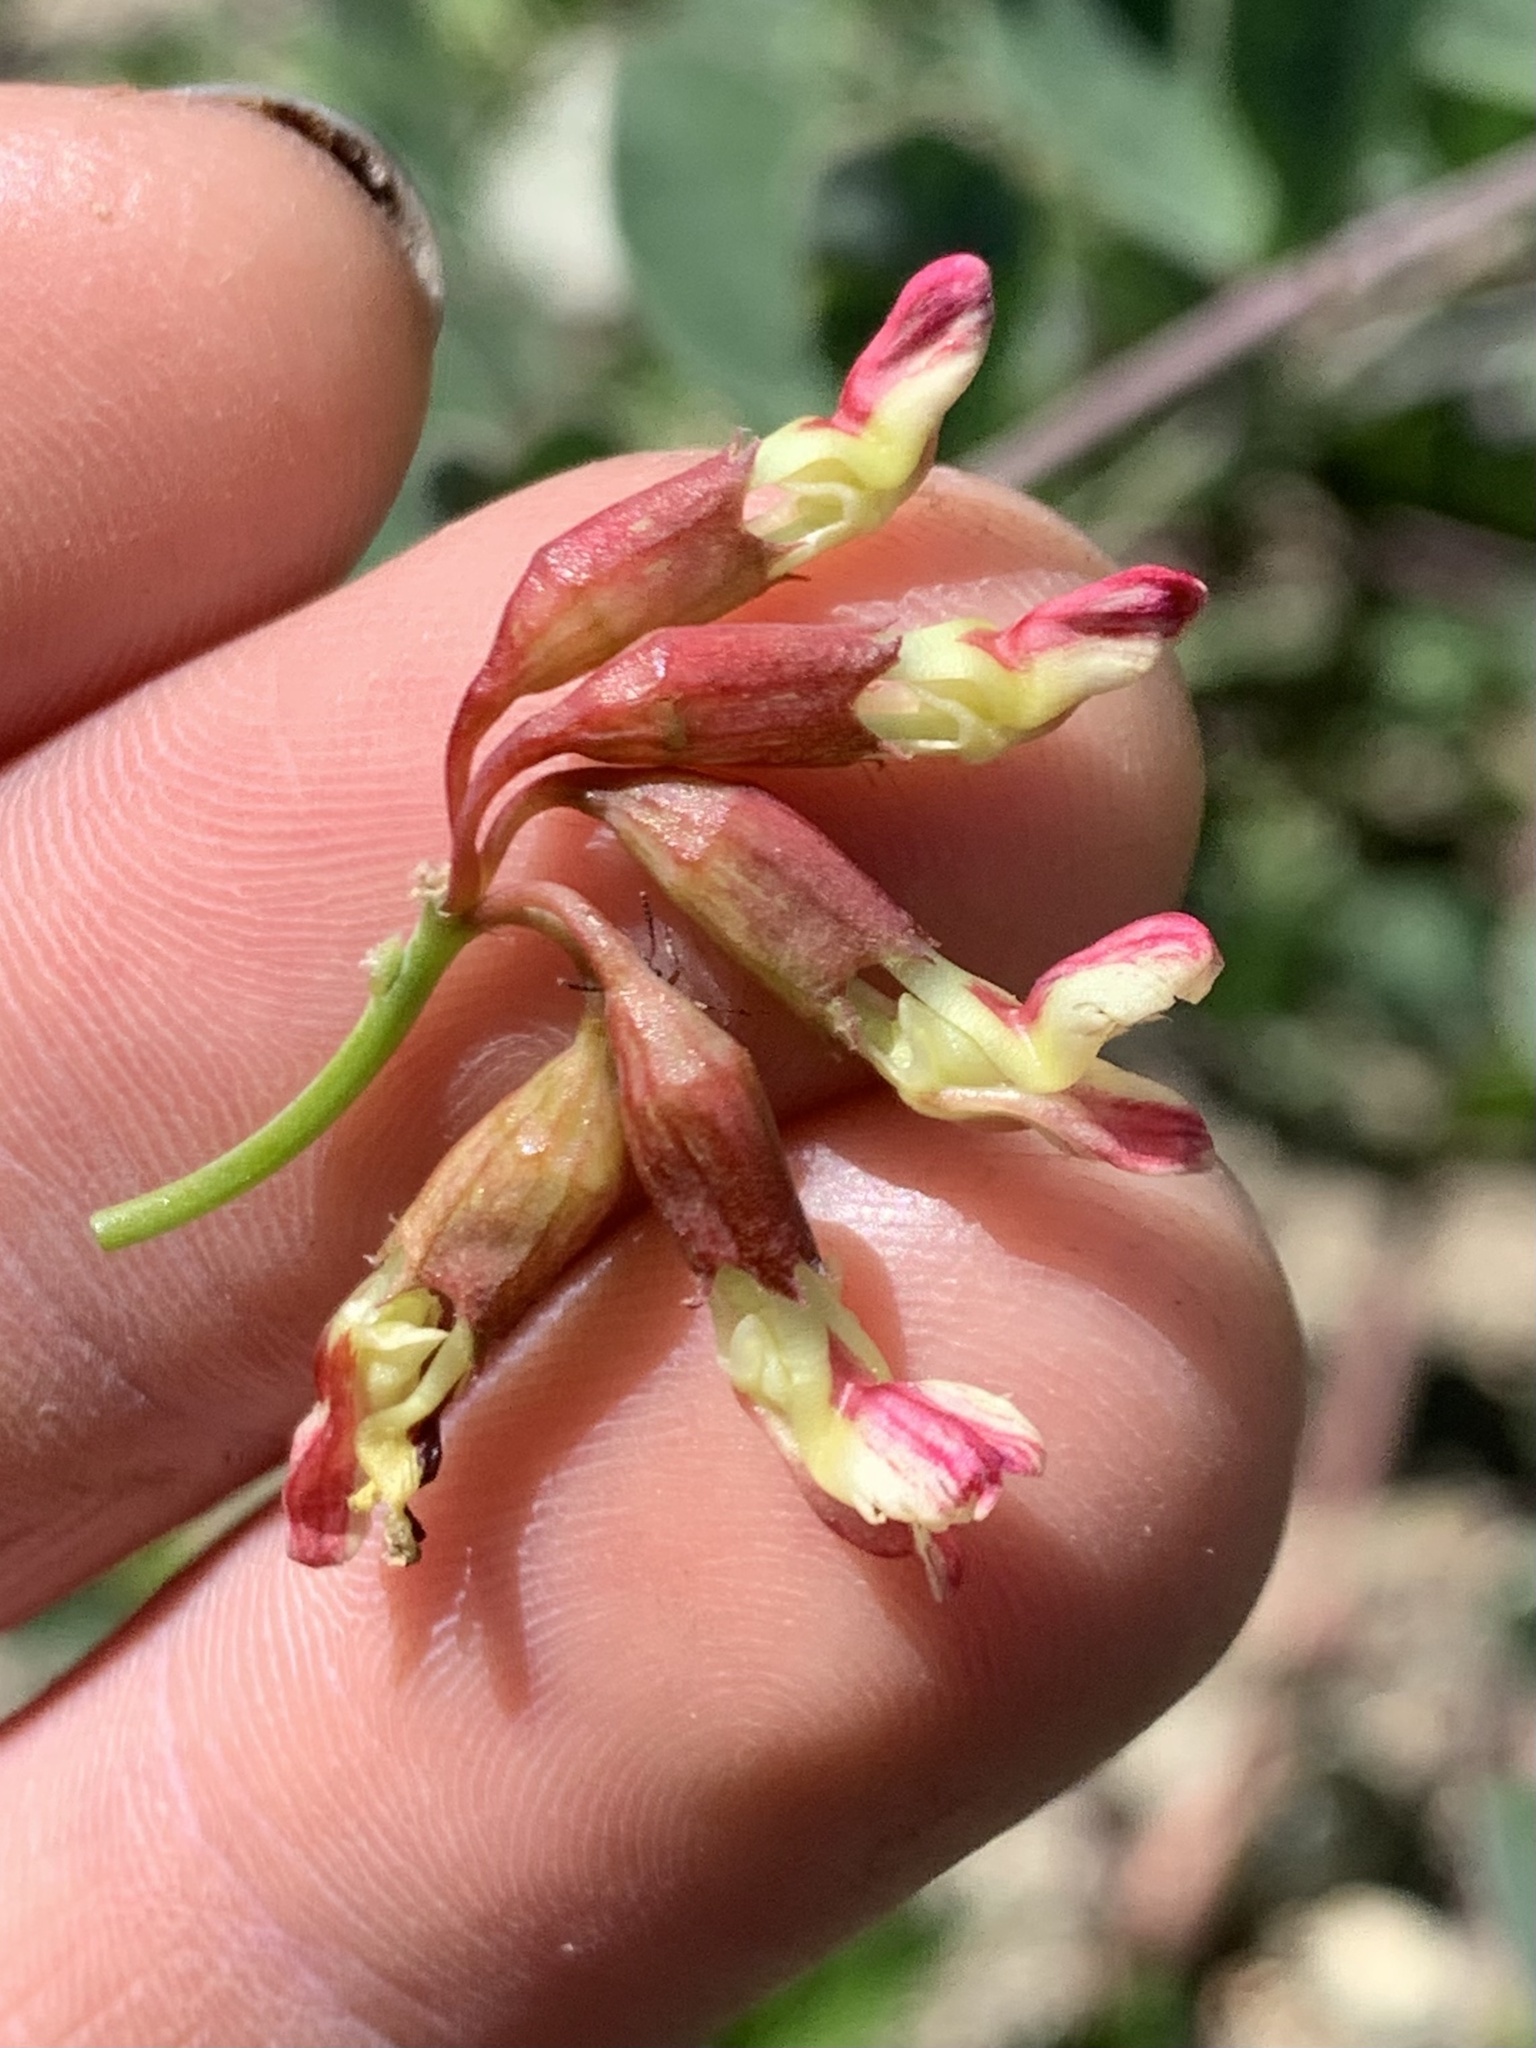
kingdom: Plantae
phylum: Tracheophyta
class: Magnoliopsida
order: Fabales
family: Fabaceae
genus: Hosackia
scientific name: Hosackia crassifolia
